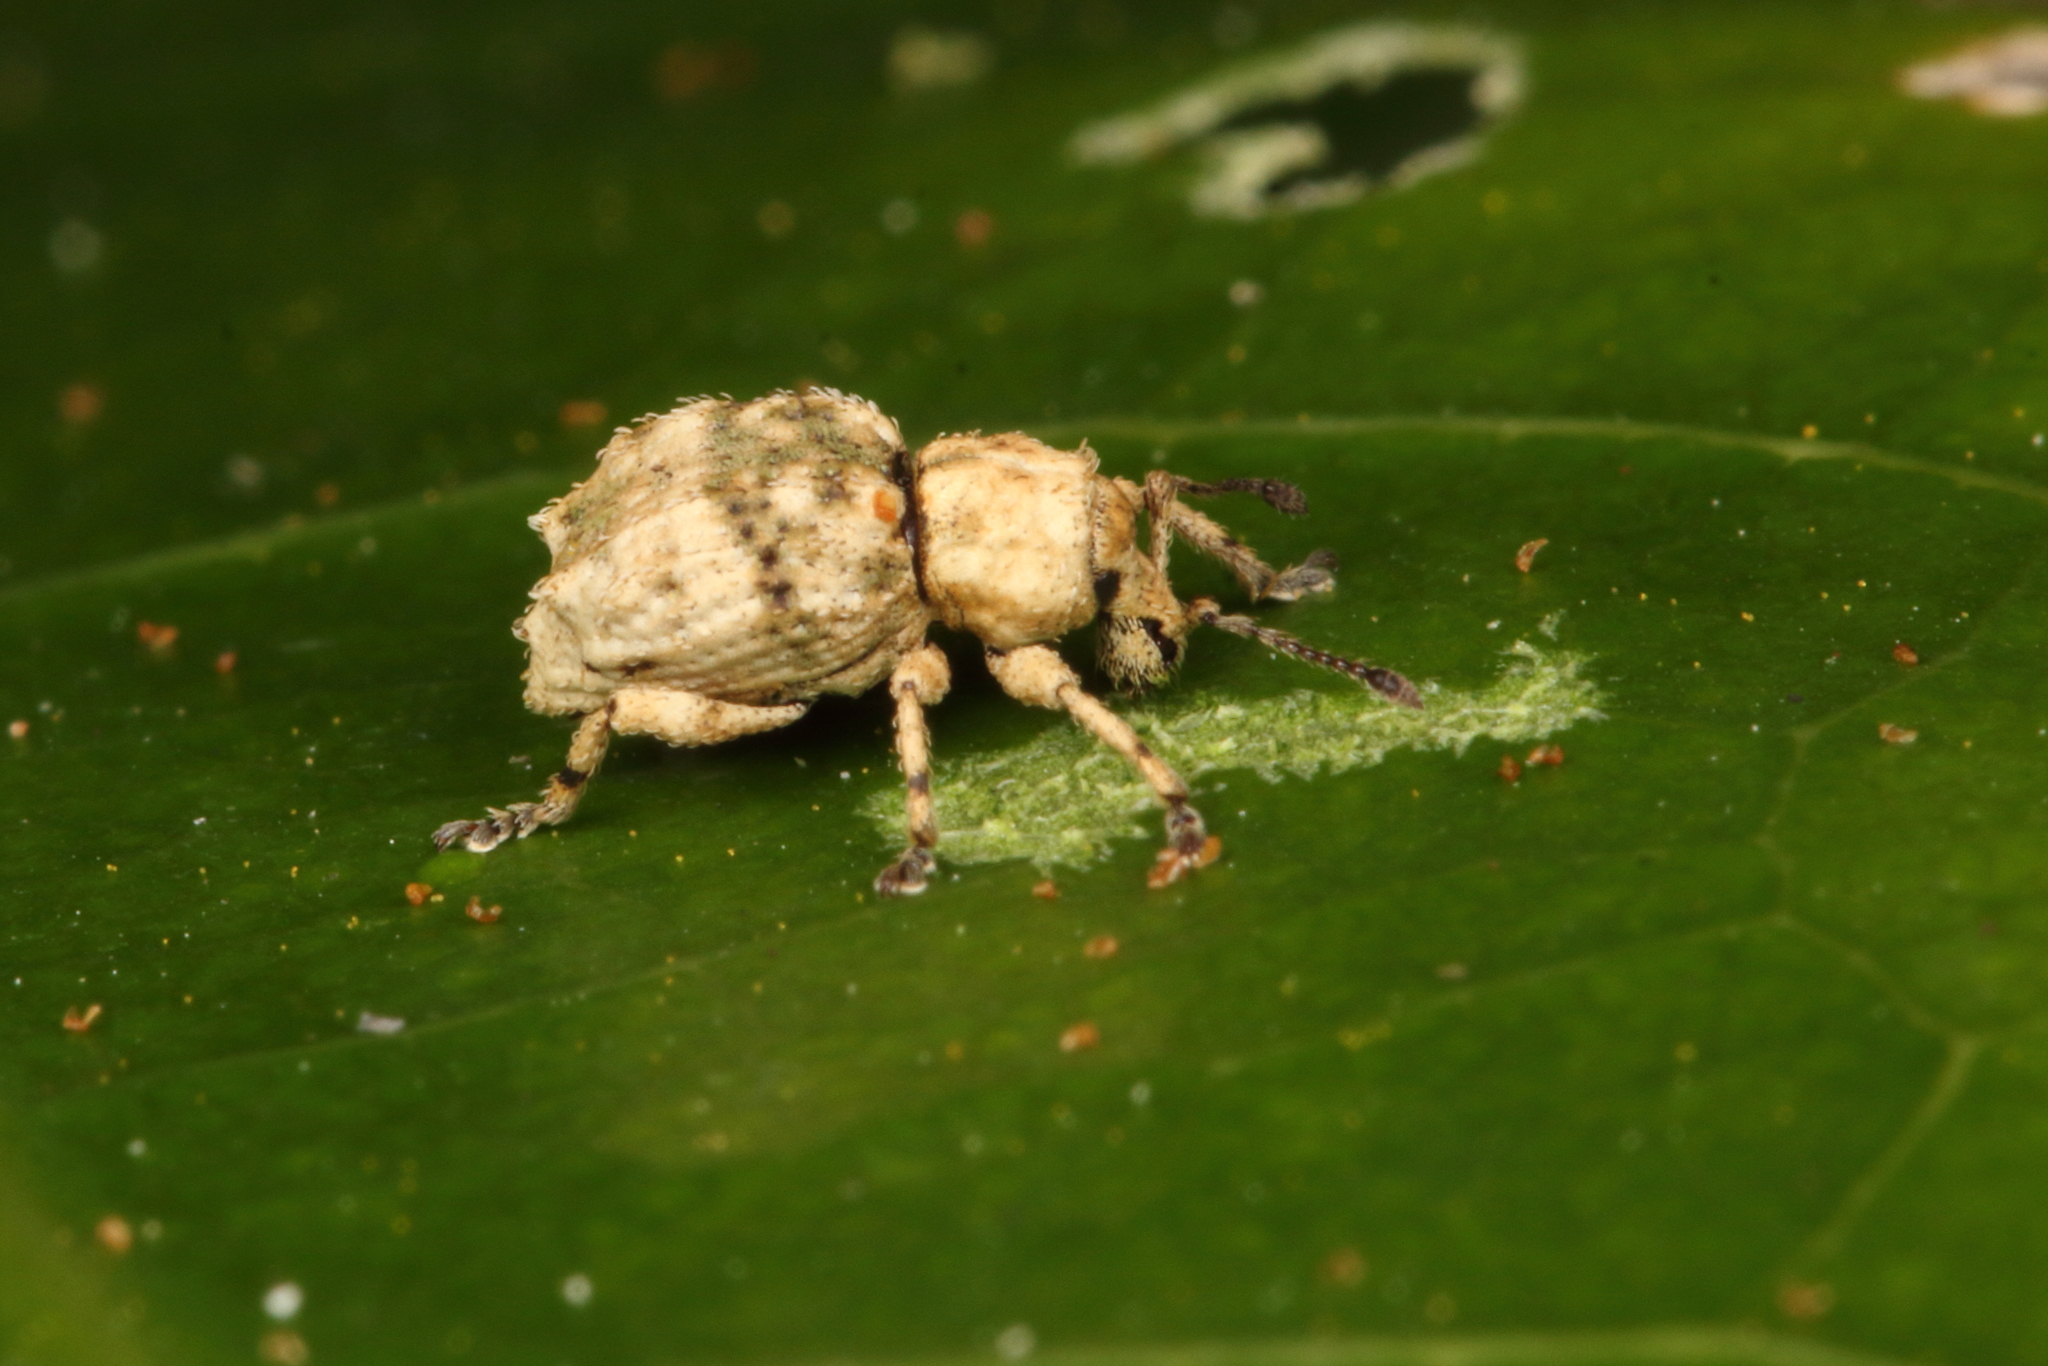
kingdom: Animalia
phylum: Arthropoda
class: Insecta
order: Coleoptera
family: Curculionidae
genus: Brachyolus
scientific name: Brachyolus punctatus
